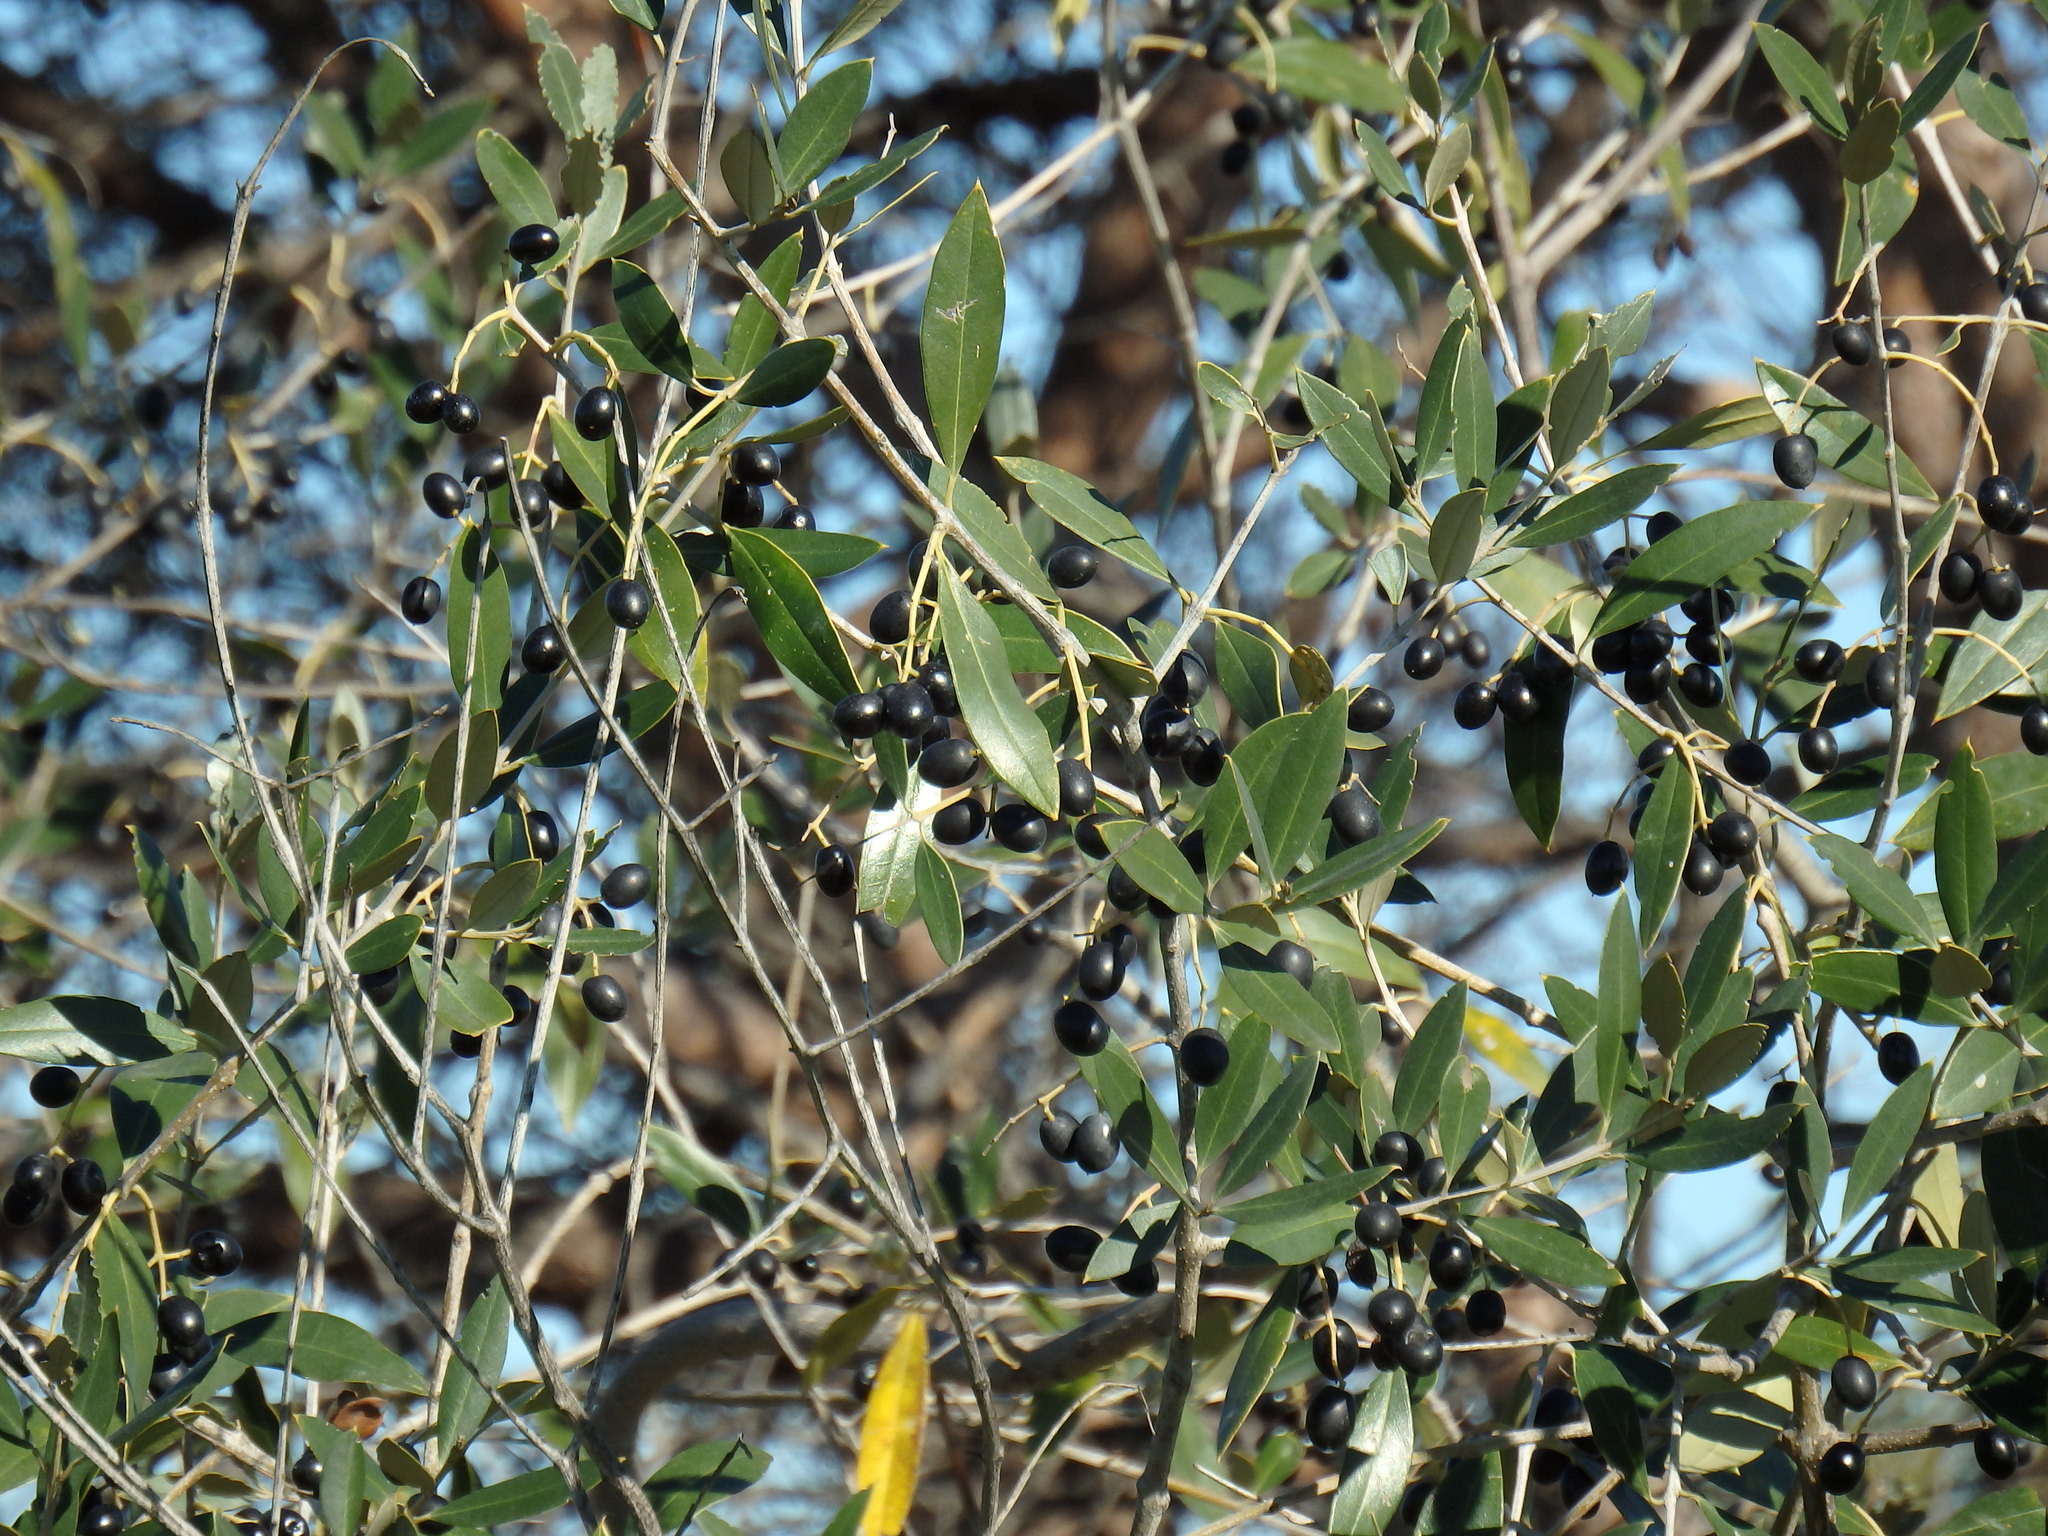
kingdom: Plantae
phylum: Tracheophyta
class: Magnoliopsida
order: Lamiales
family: Oleaceae
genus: Olea
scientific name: Olea europaea
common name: Olive
